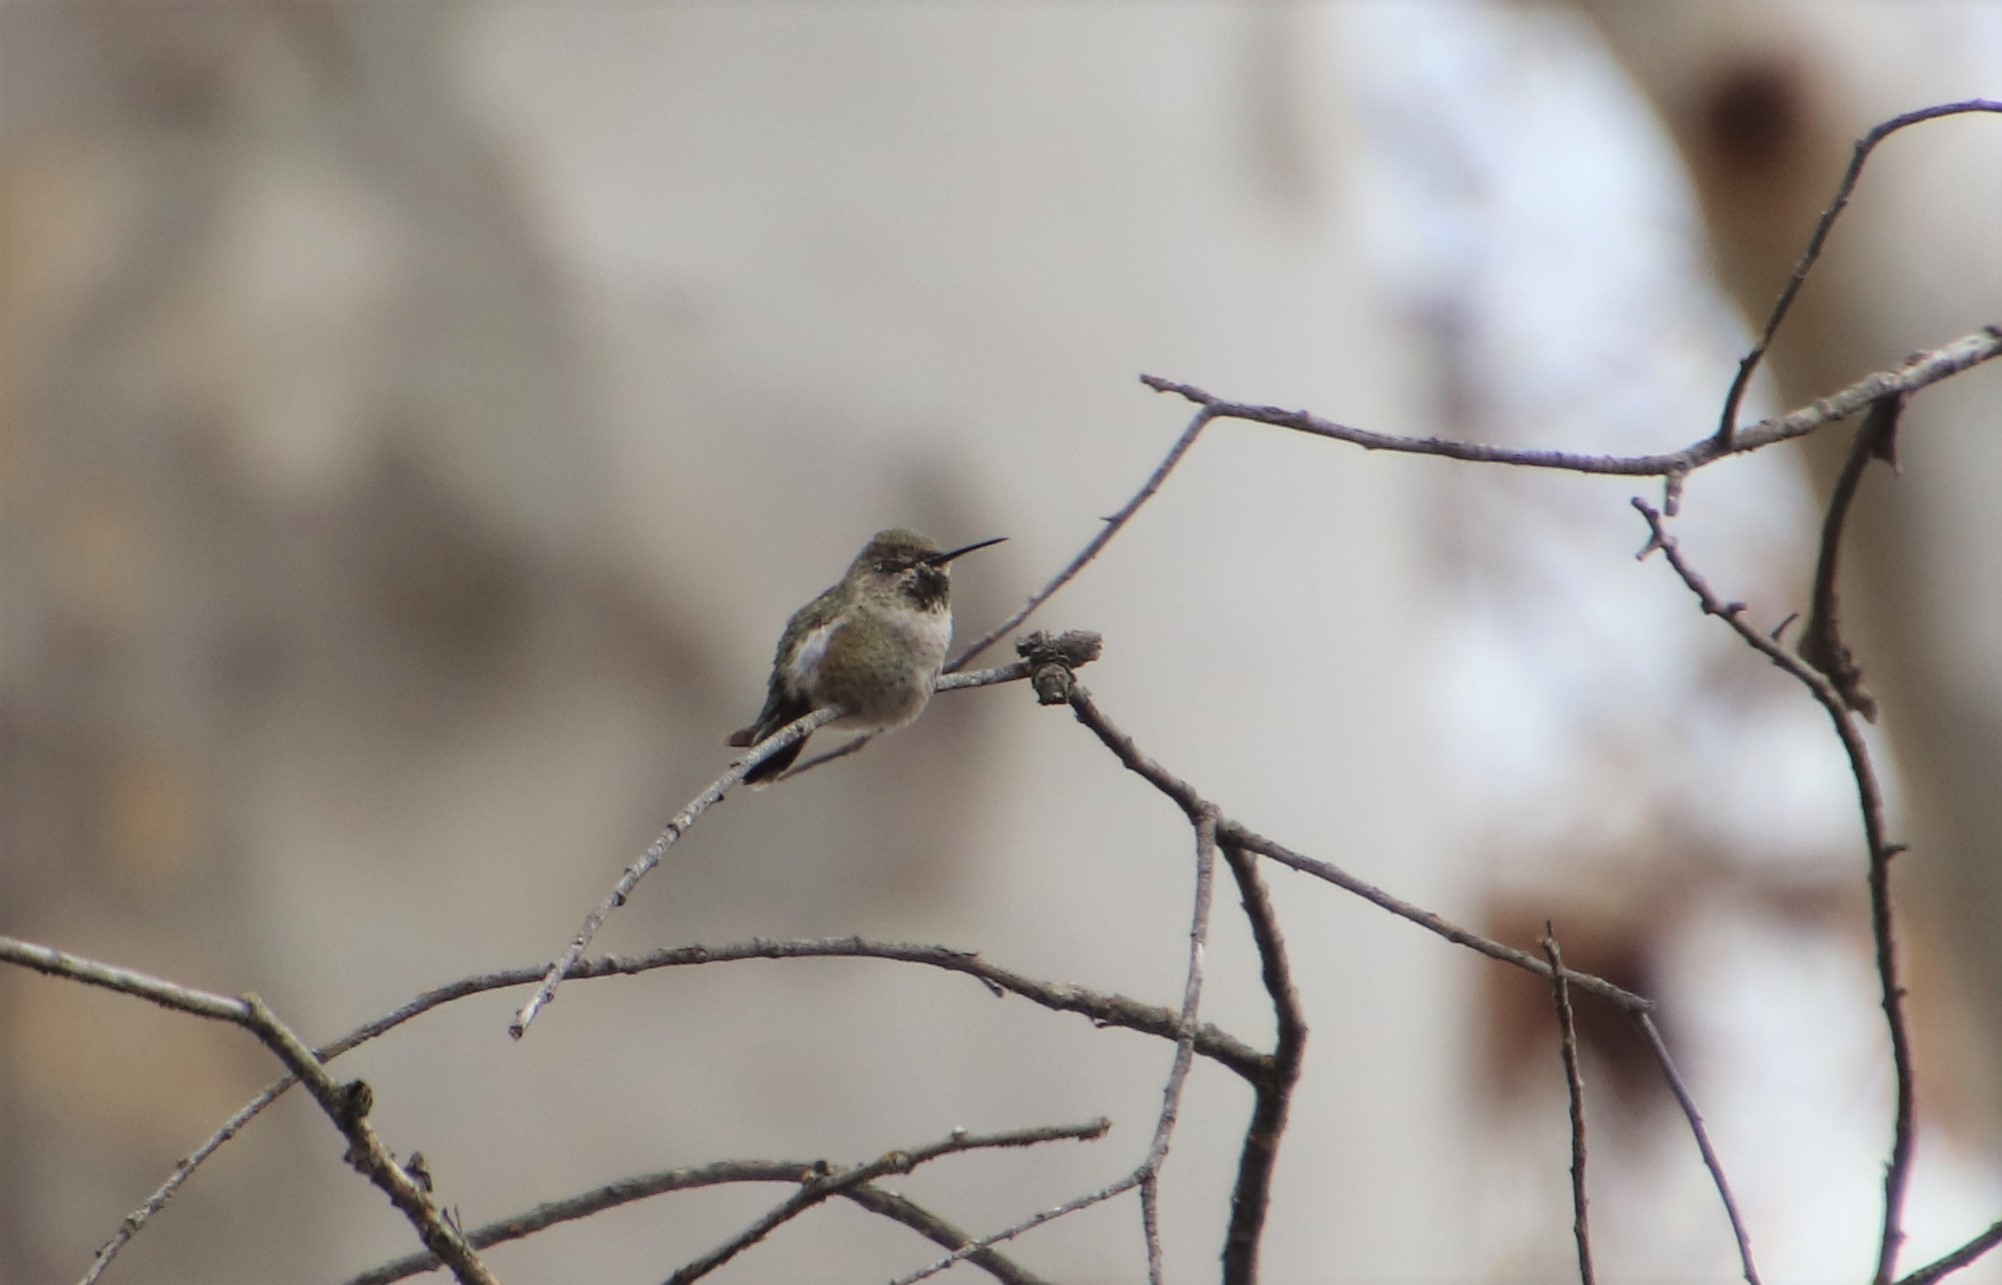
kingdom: Animalia
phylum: Chordata
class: Aves
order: Apodiformes
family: Trochilidae
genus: Calypte
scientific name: Calypte anna
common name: Anna's hummingbird
